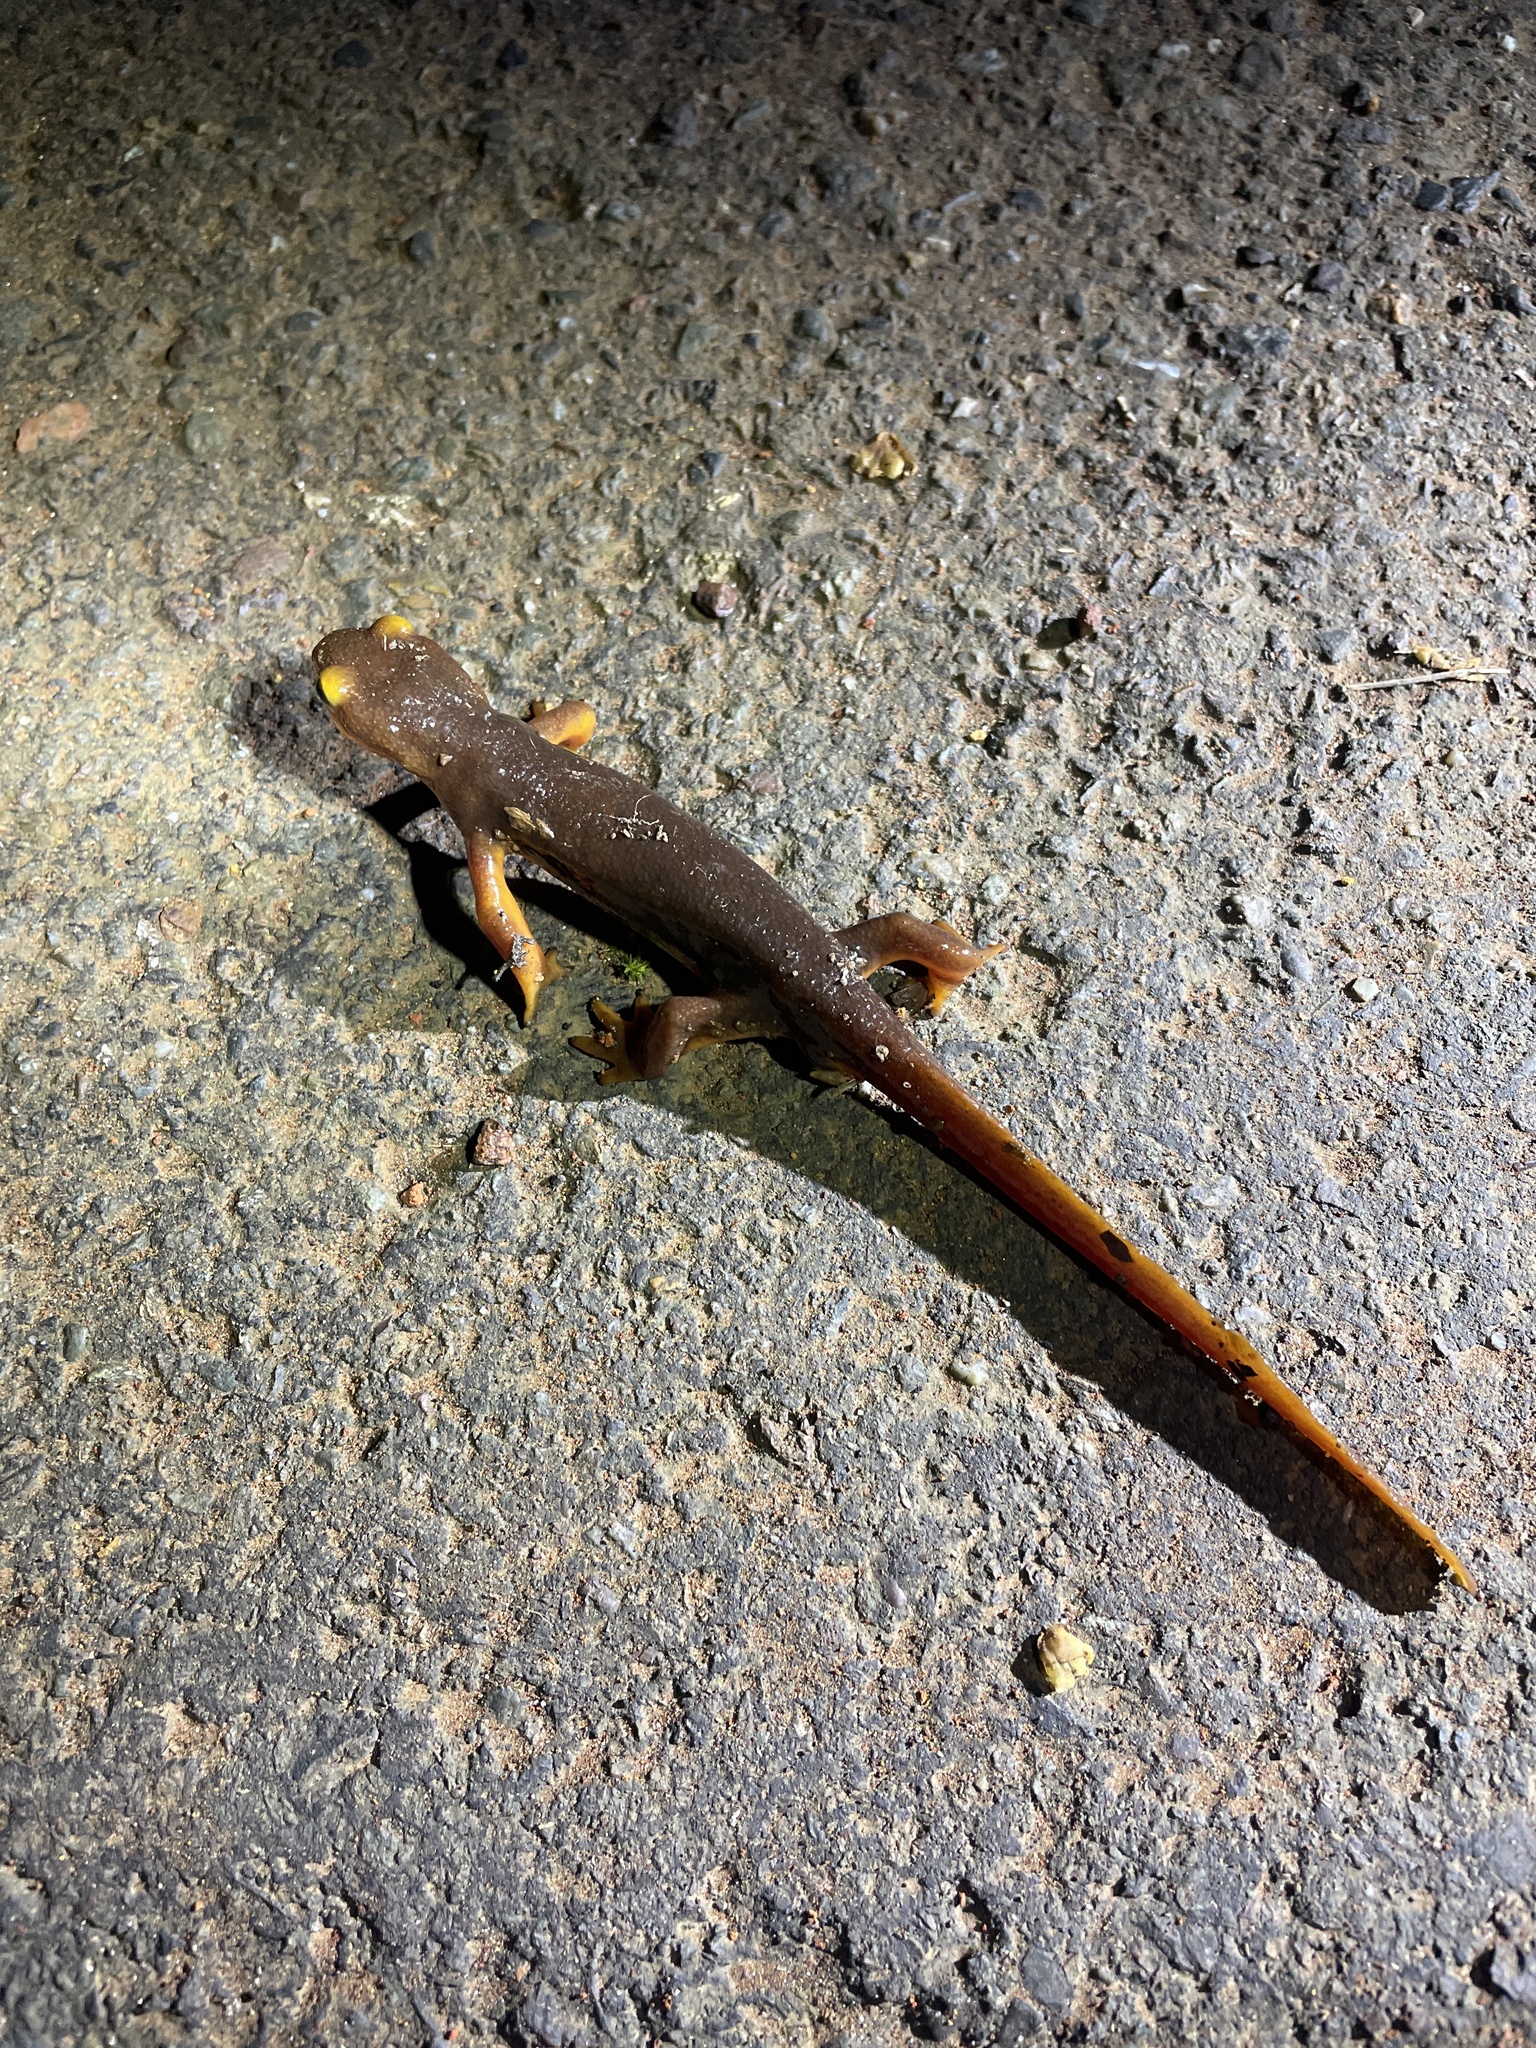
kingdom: Animalia
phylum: Chordata
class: Amphibia
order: Caudata
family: Salamandridae
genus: Taricha
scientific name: Taricha torosa
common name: California newt
